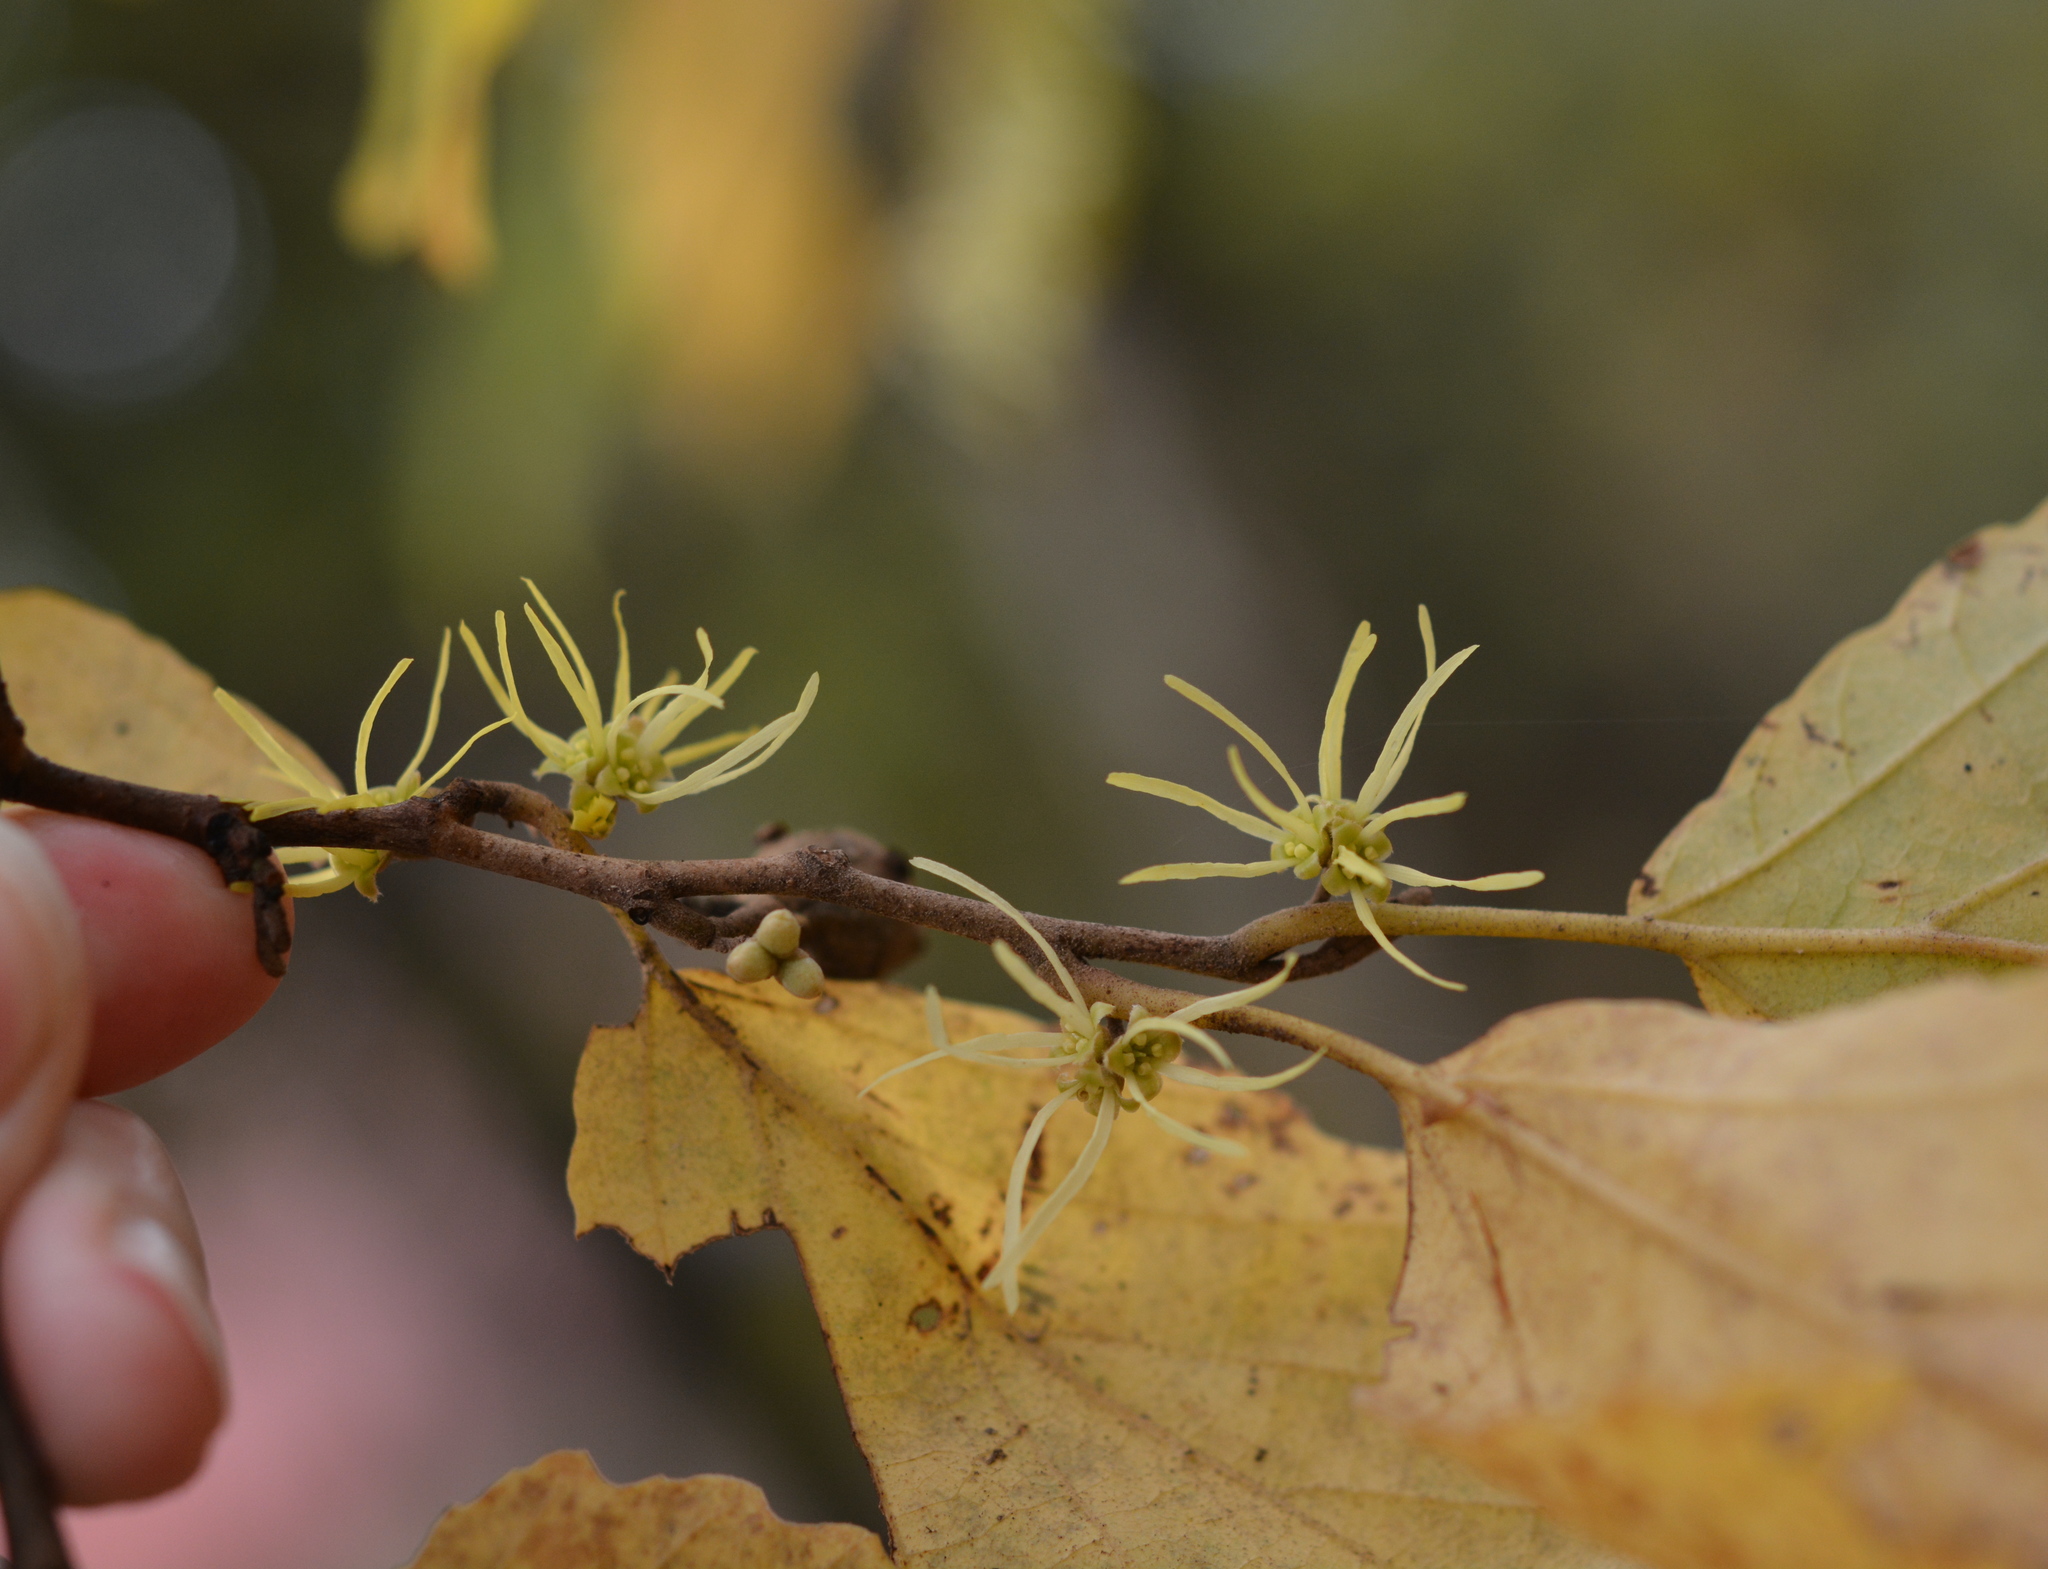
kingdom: Plantae
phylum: Tracheophyta
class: Magnoliopsida
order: Saxifragales
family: Hamamelidaceae
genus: Hamamelis
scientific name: Hamamelis virginiana
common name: Witch-hazel
